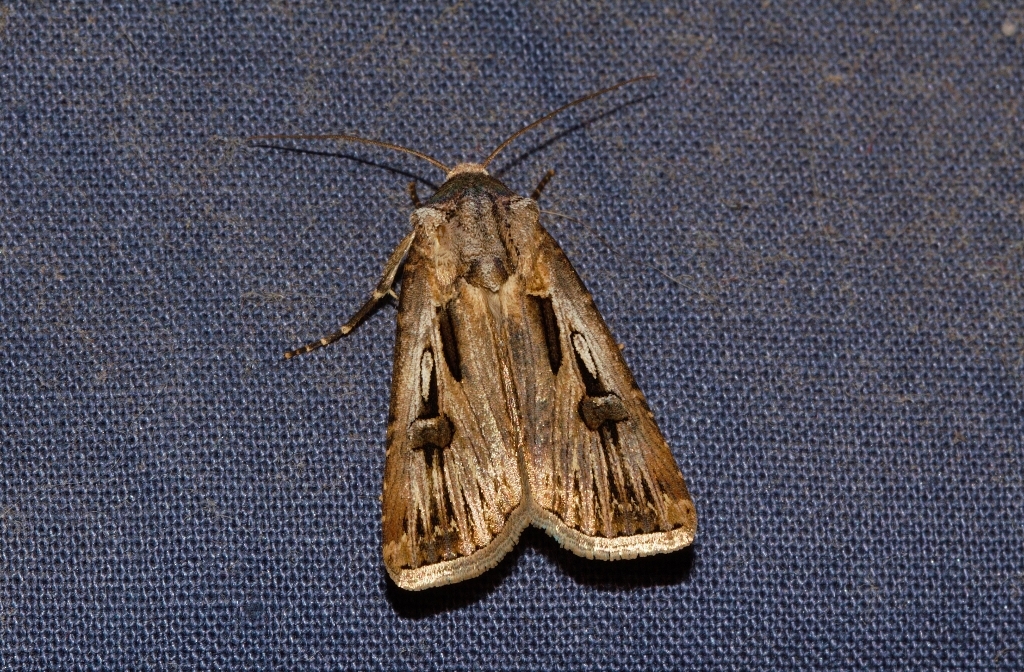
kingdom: Animalia
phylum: Arthropoda
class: Insecta
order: Lepidoptera
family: Noctuidae
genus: Agrotis
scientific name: Agrotis
